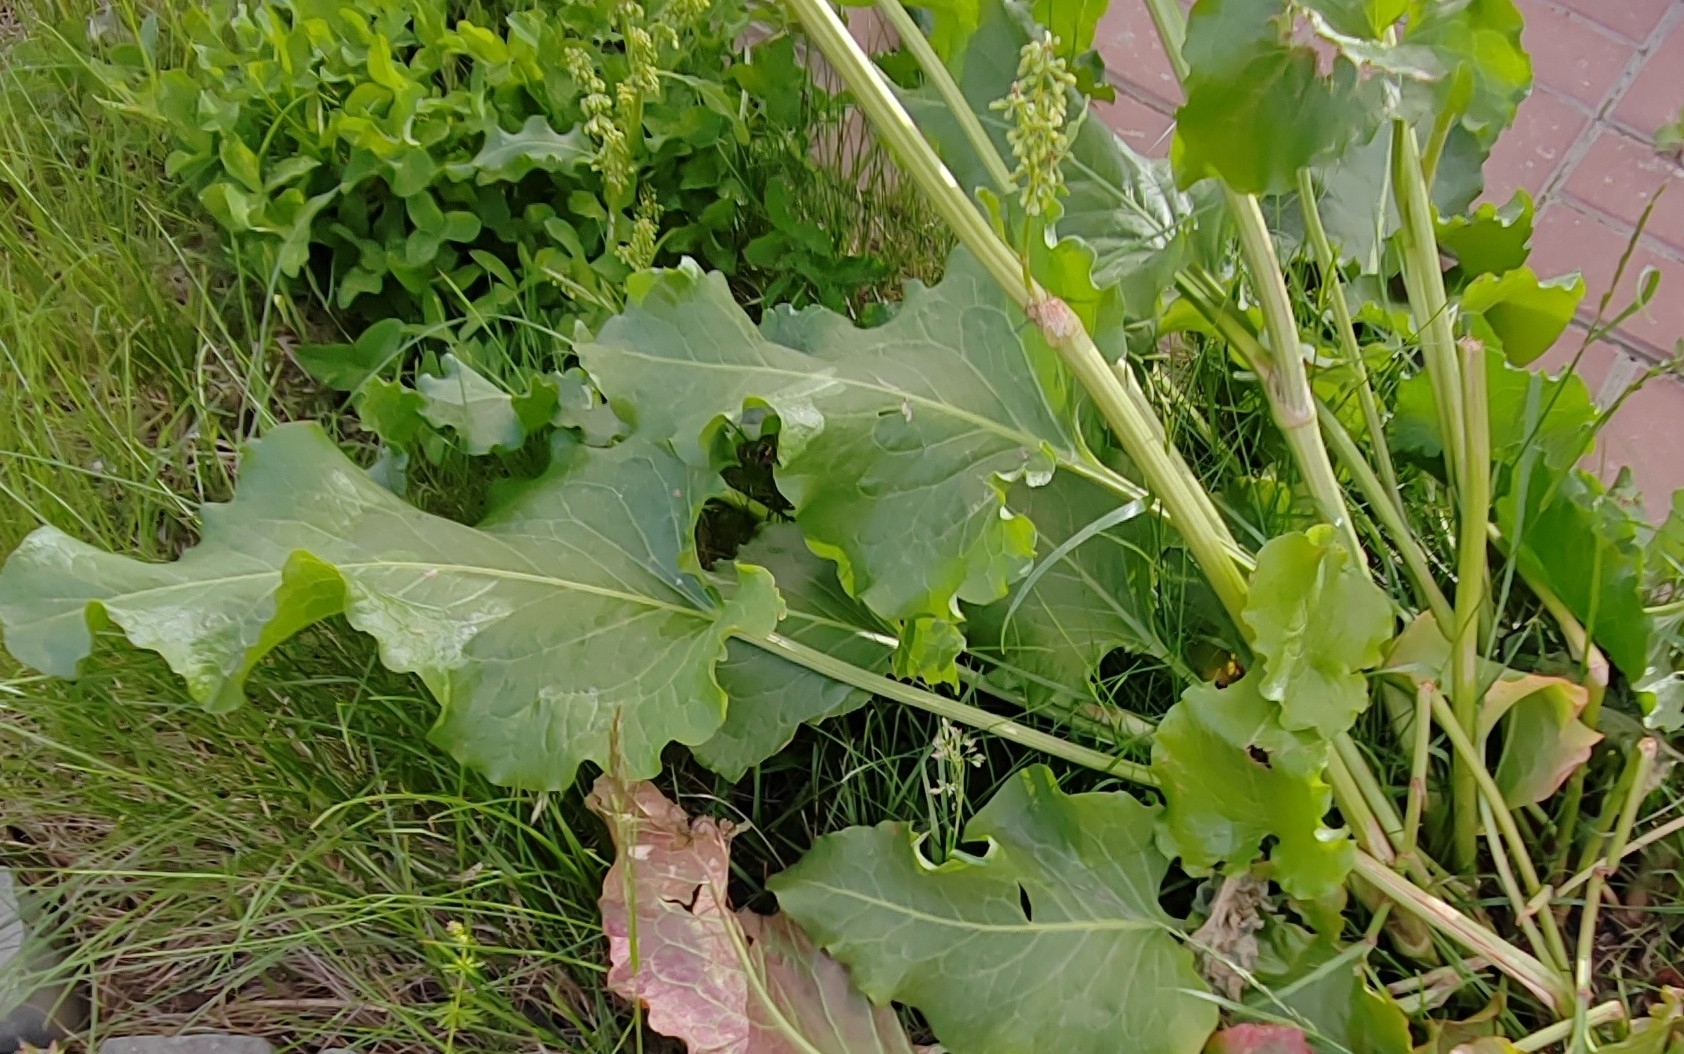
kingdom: Plantae
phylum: Tracheophyta
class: Magnoliopsida
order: Caryophyllales
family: Polygonaceae
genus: Rumex
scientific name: Rumex confertus
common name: Russian dock
